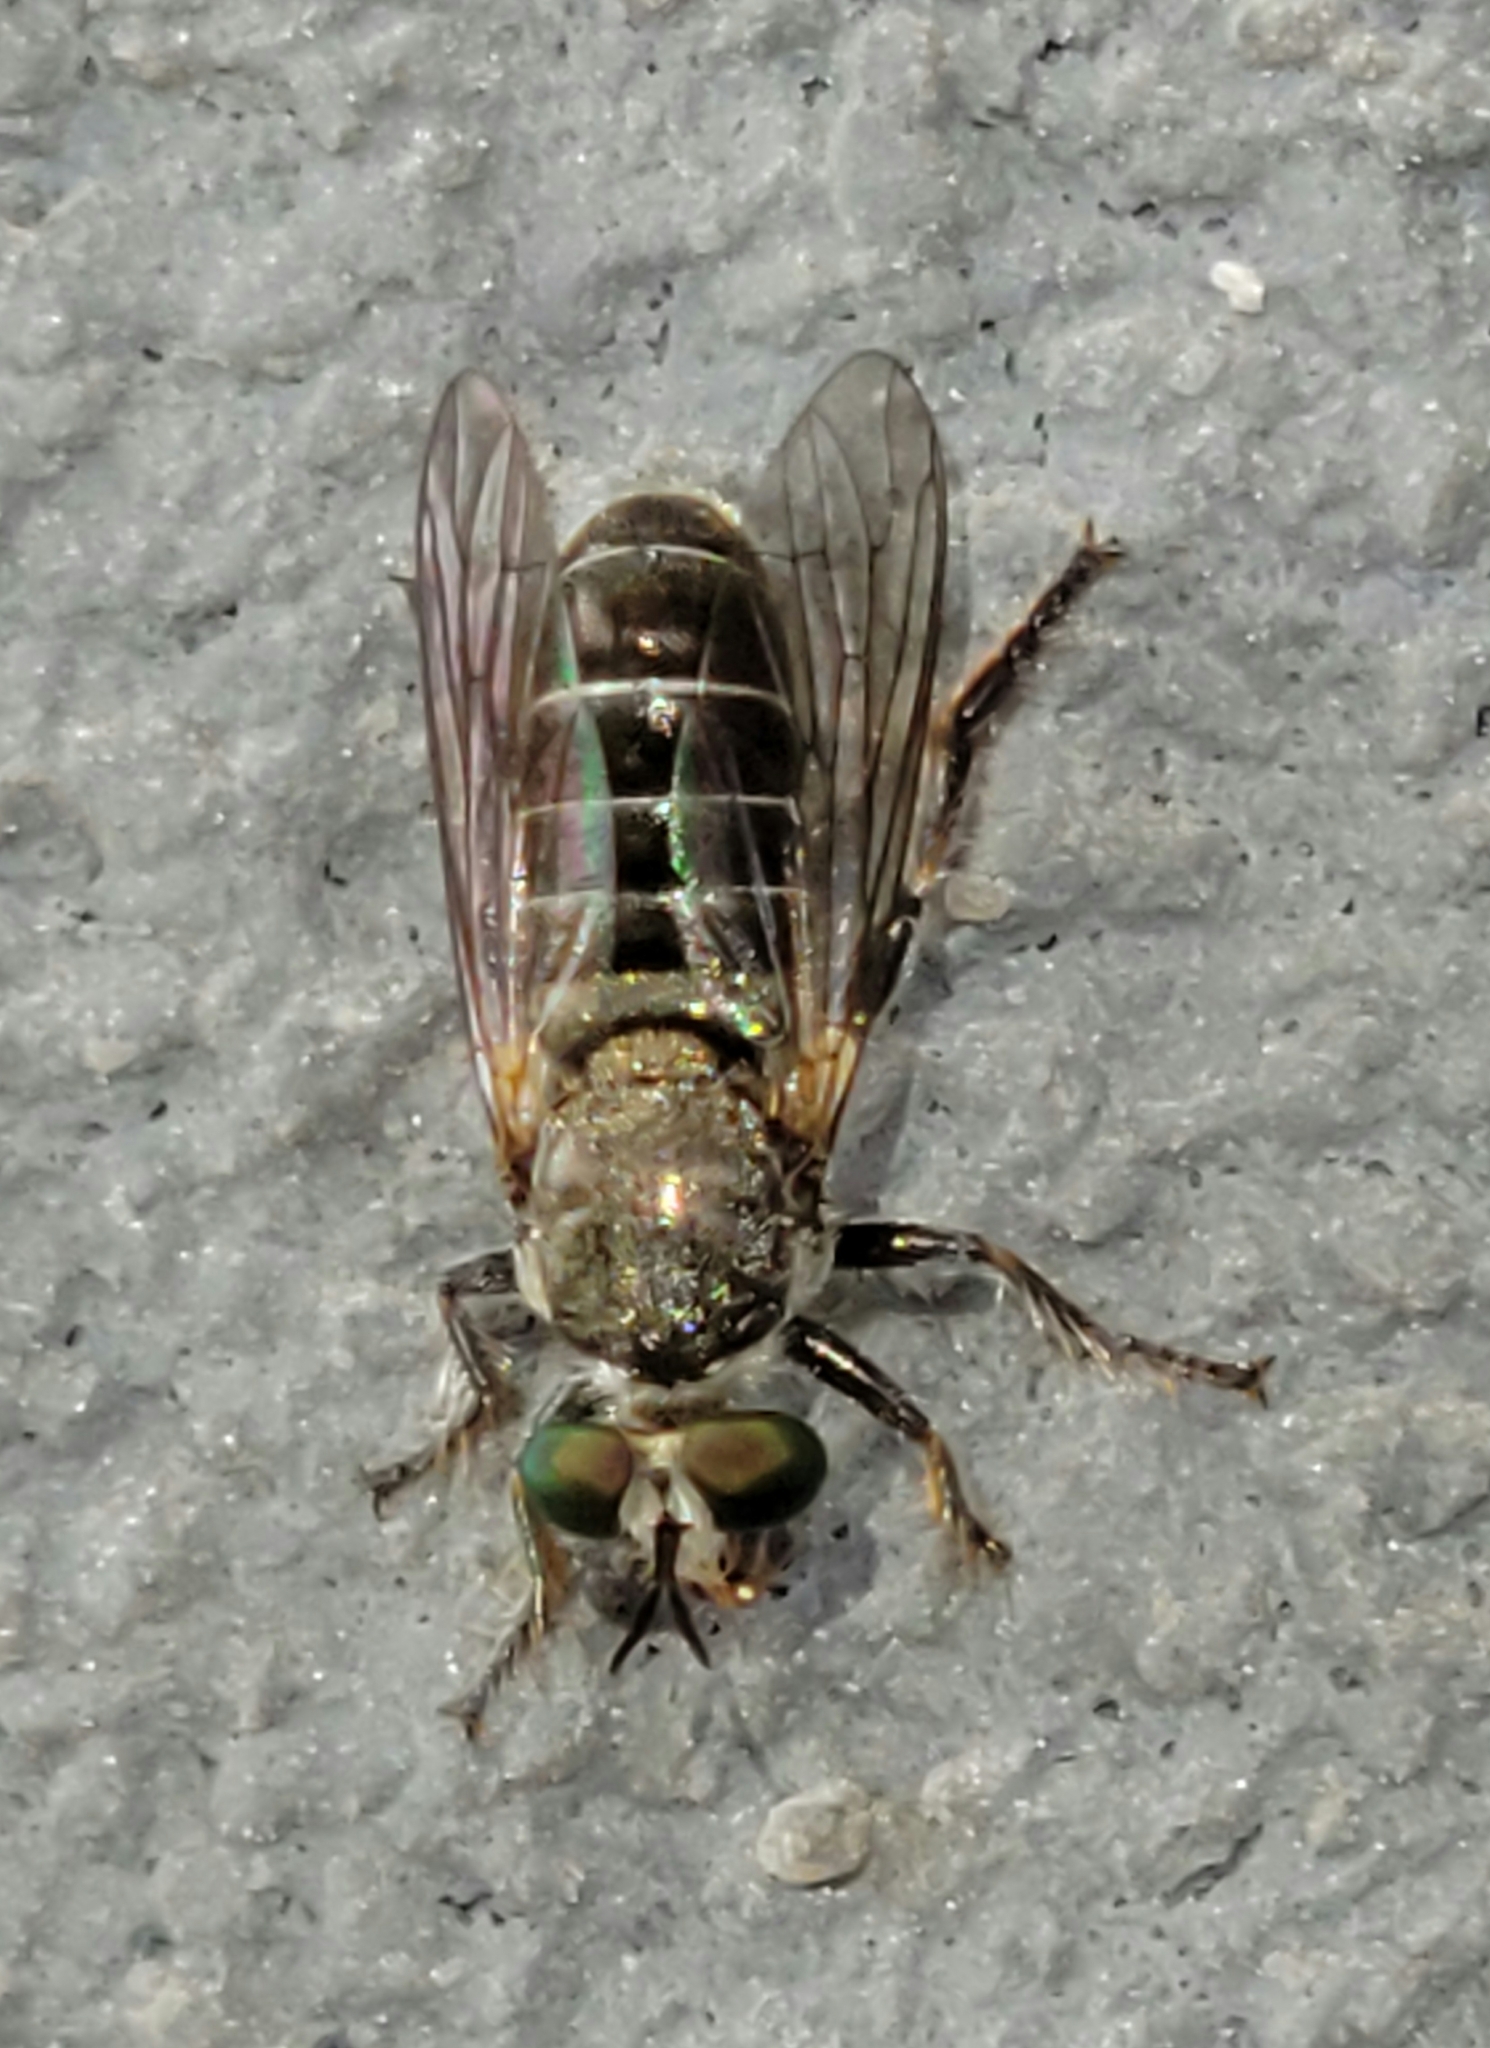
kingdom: Animalia
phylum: Arthropoda
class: Insecta
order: Diptera
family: Asilidae
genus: Atomosia
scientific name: Atomosia puella
